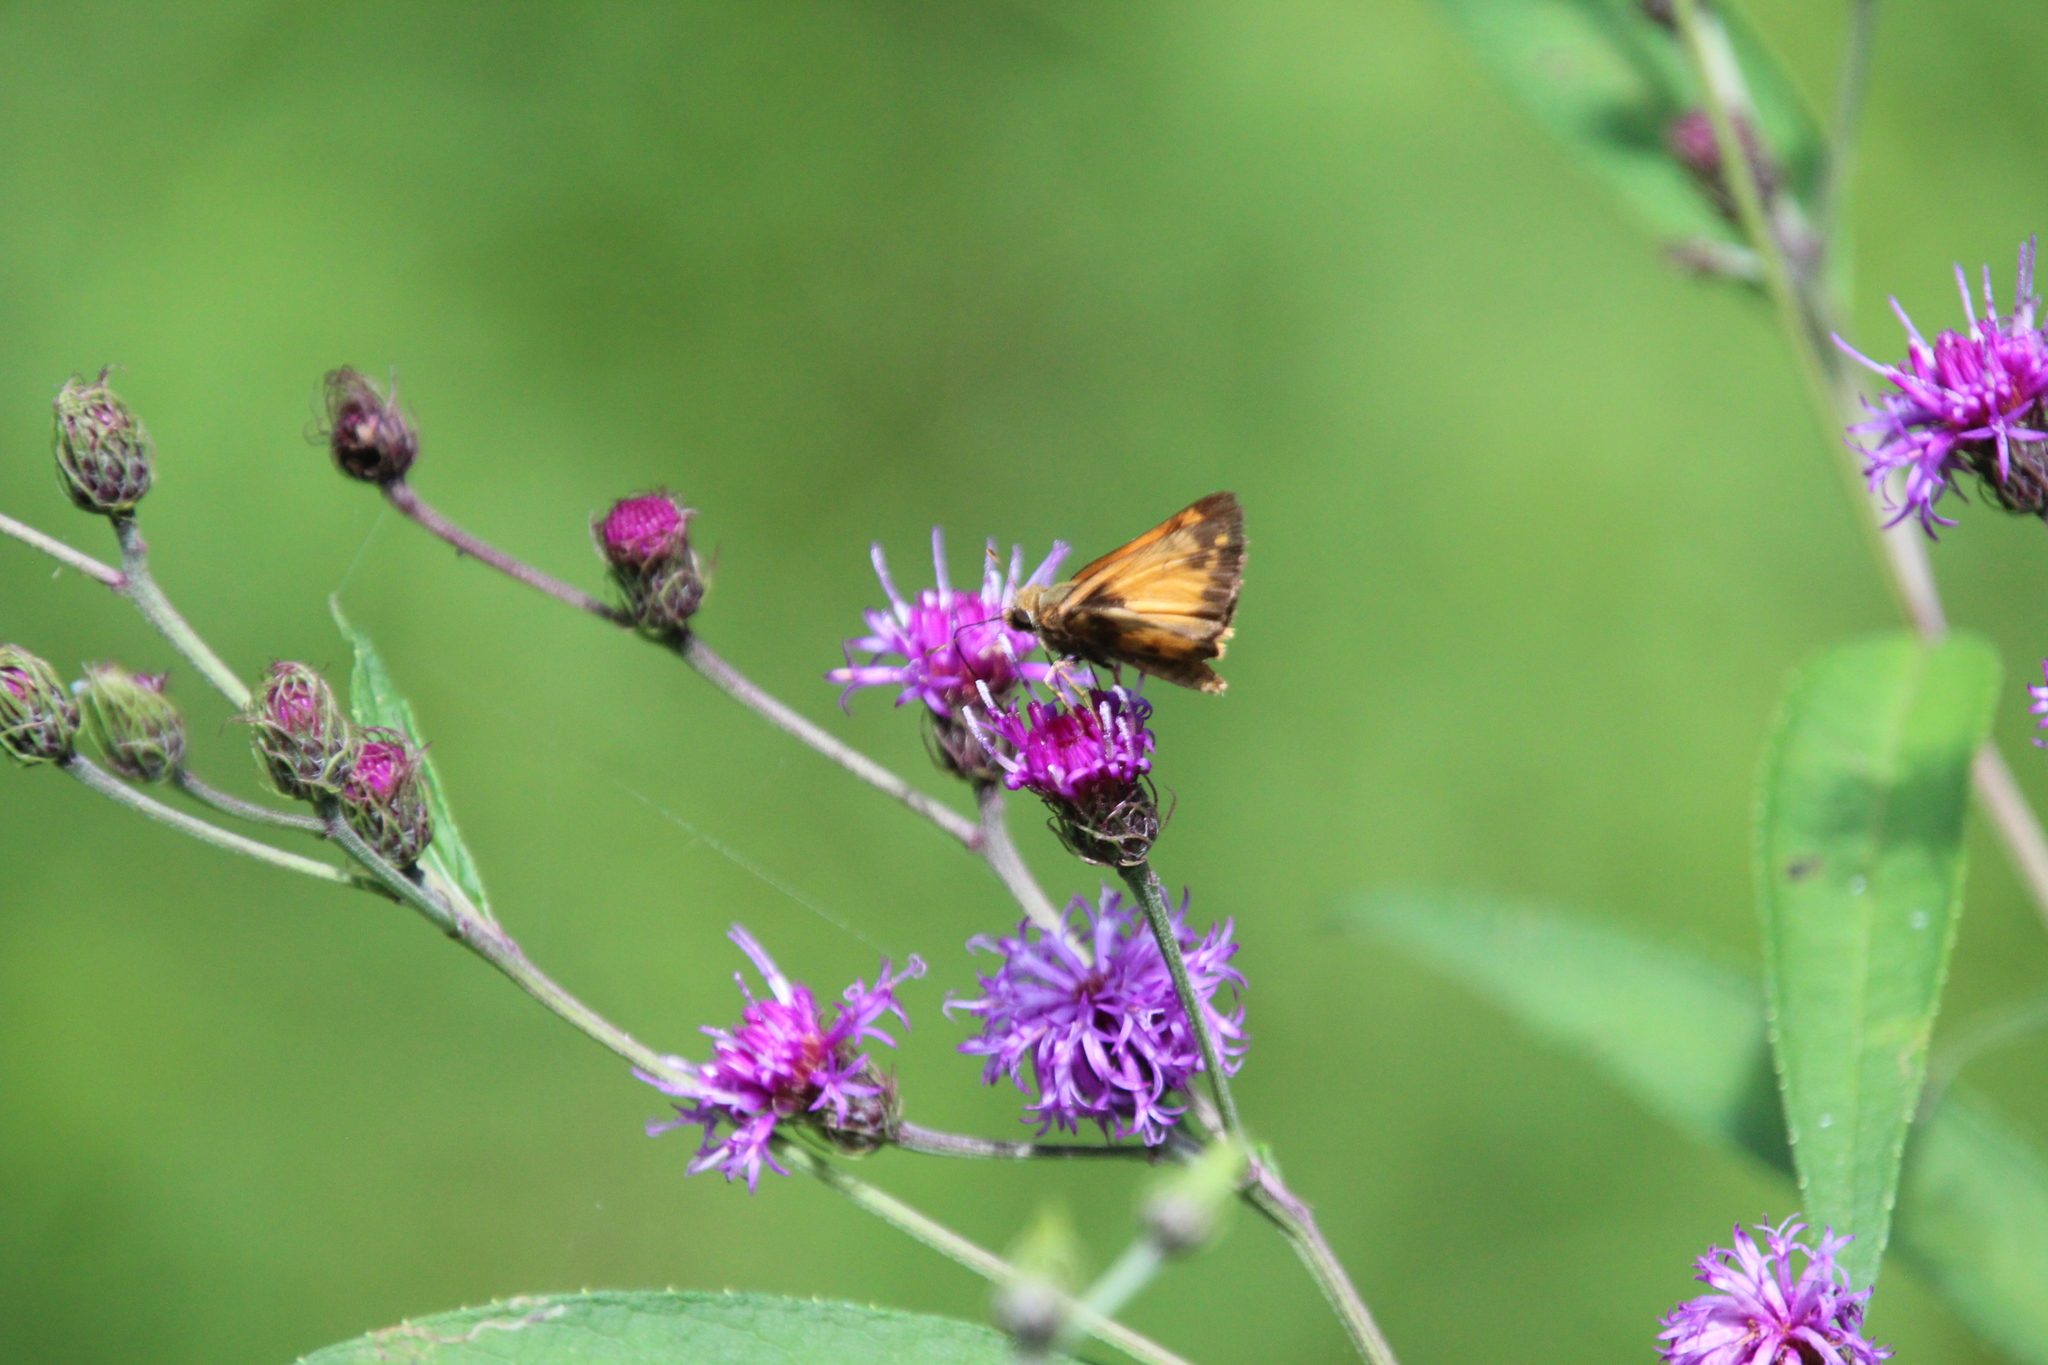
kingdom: Animalia
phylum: Arthropoda
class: Insecta
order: Lepidoptera
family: Hesperiidae
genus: Lon
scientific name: Lon zabulon
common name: Zabulon skipper
